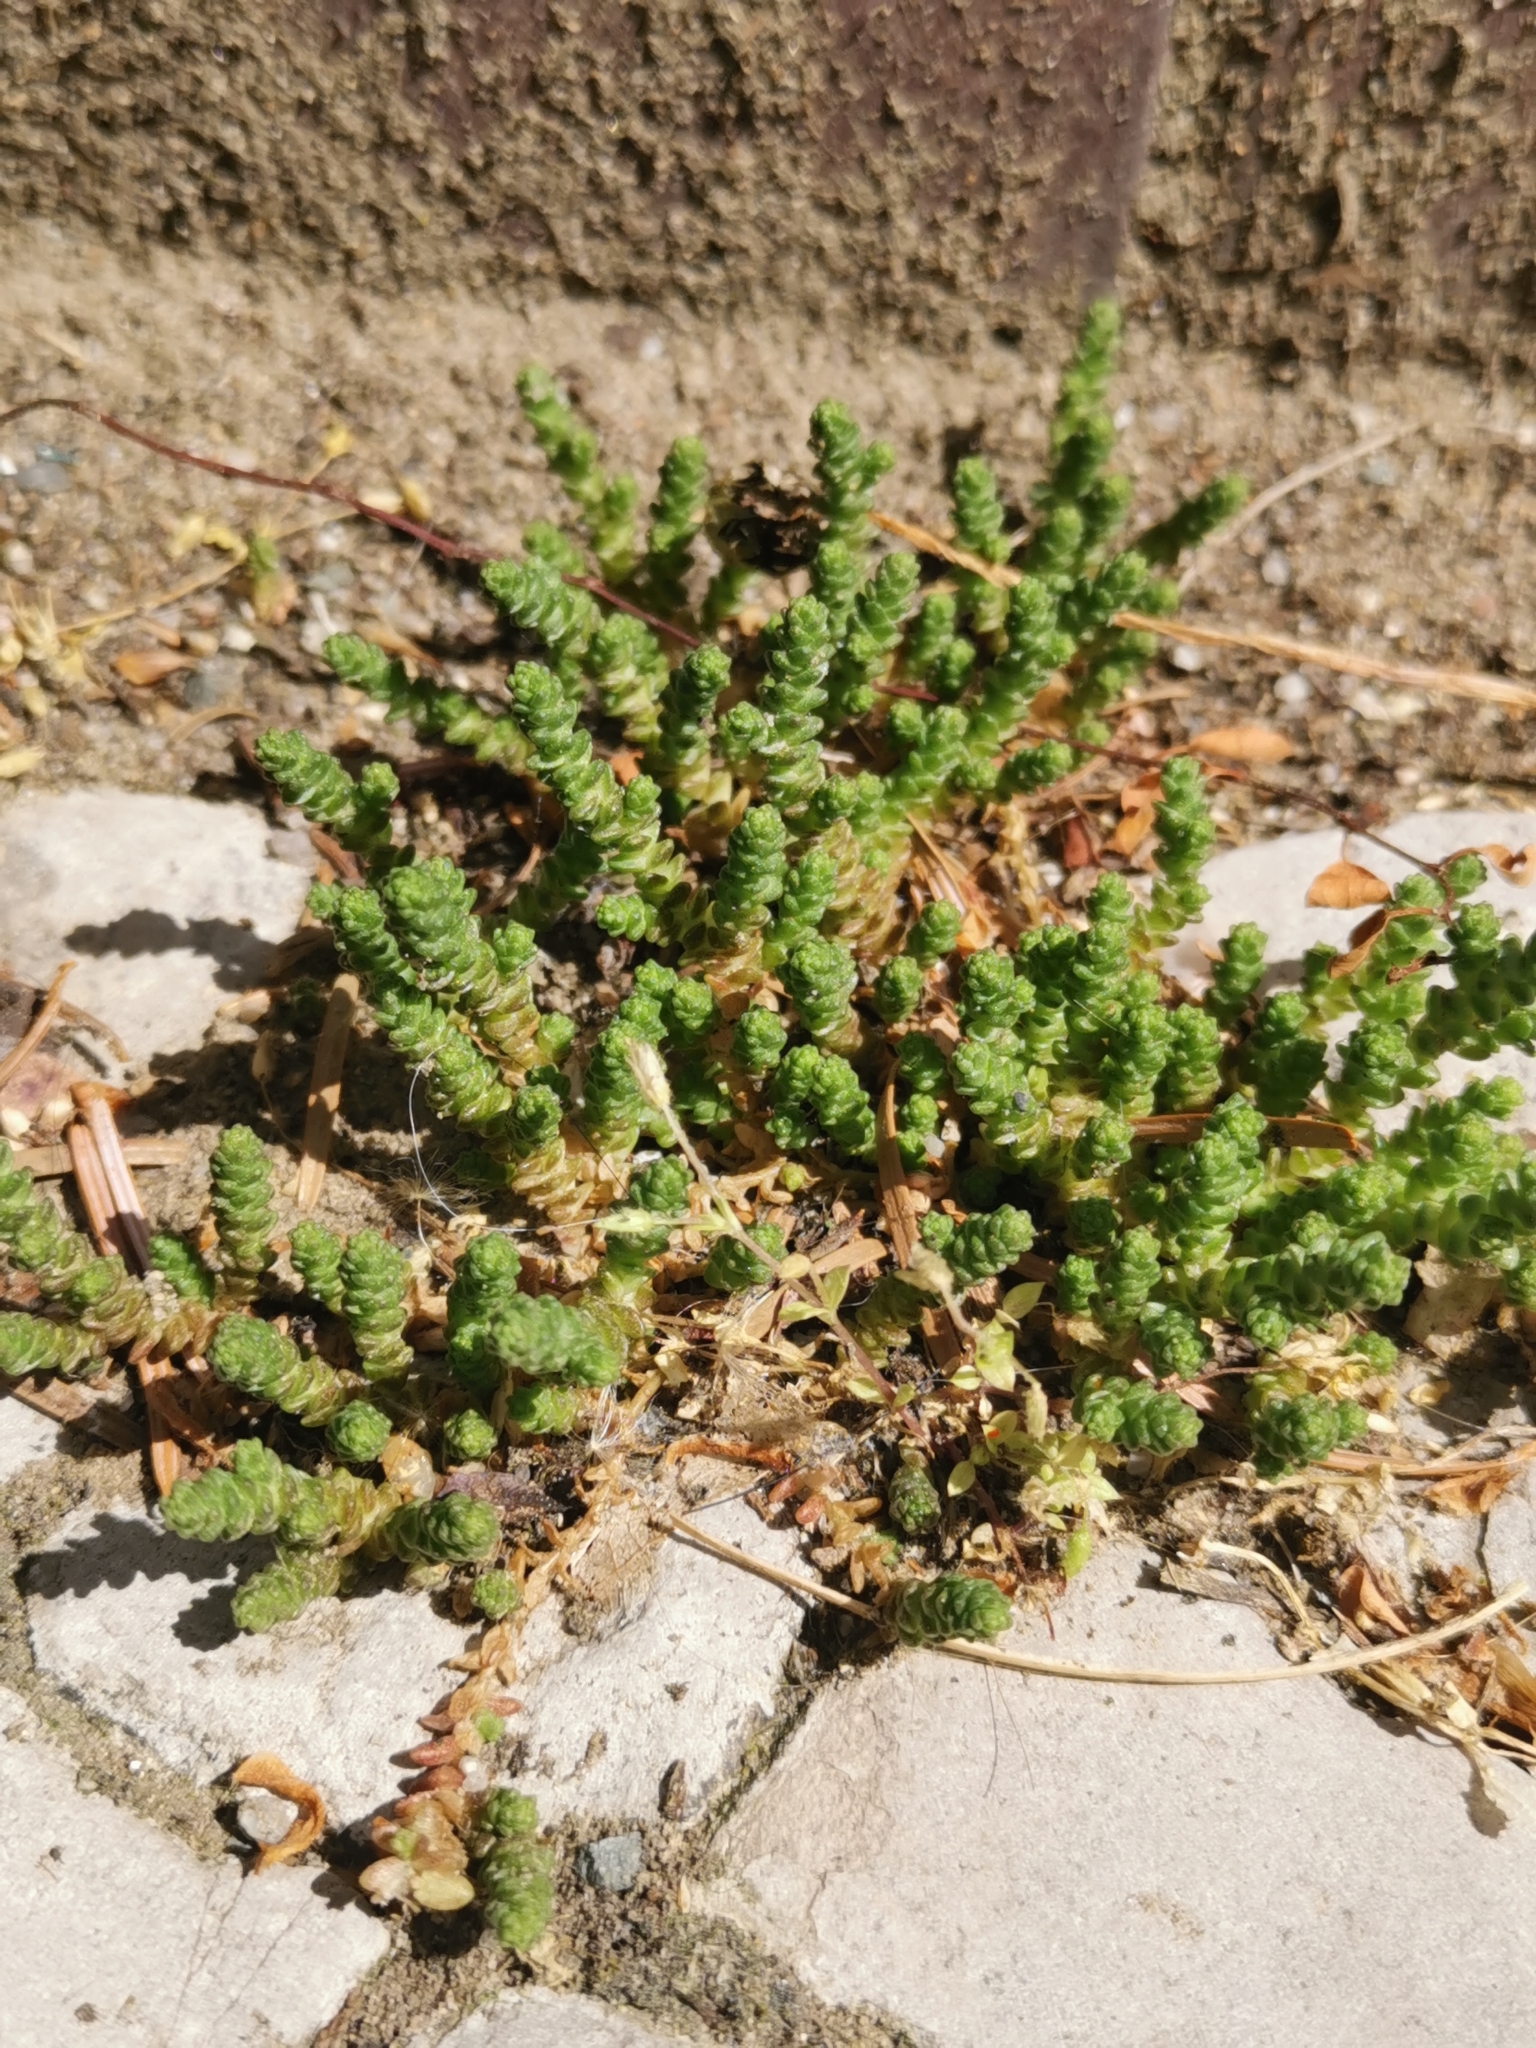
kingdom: Plantae
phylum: Tracheophyta
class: Magnoliopsida
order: Saxifragales
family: Crassulaceae
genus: Sedum
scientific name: Sedum acre
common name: Biting stonecrop
